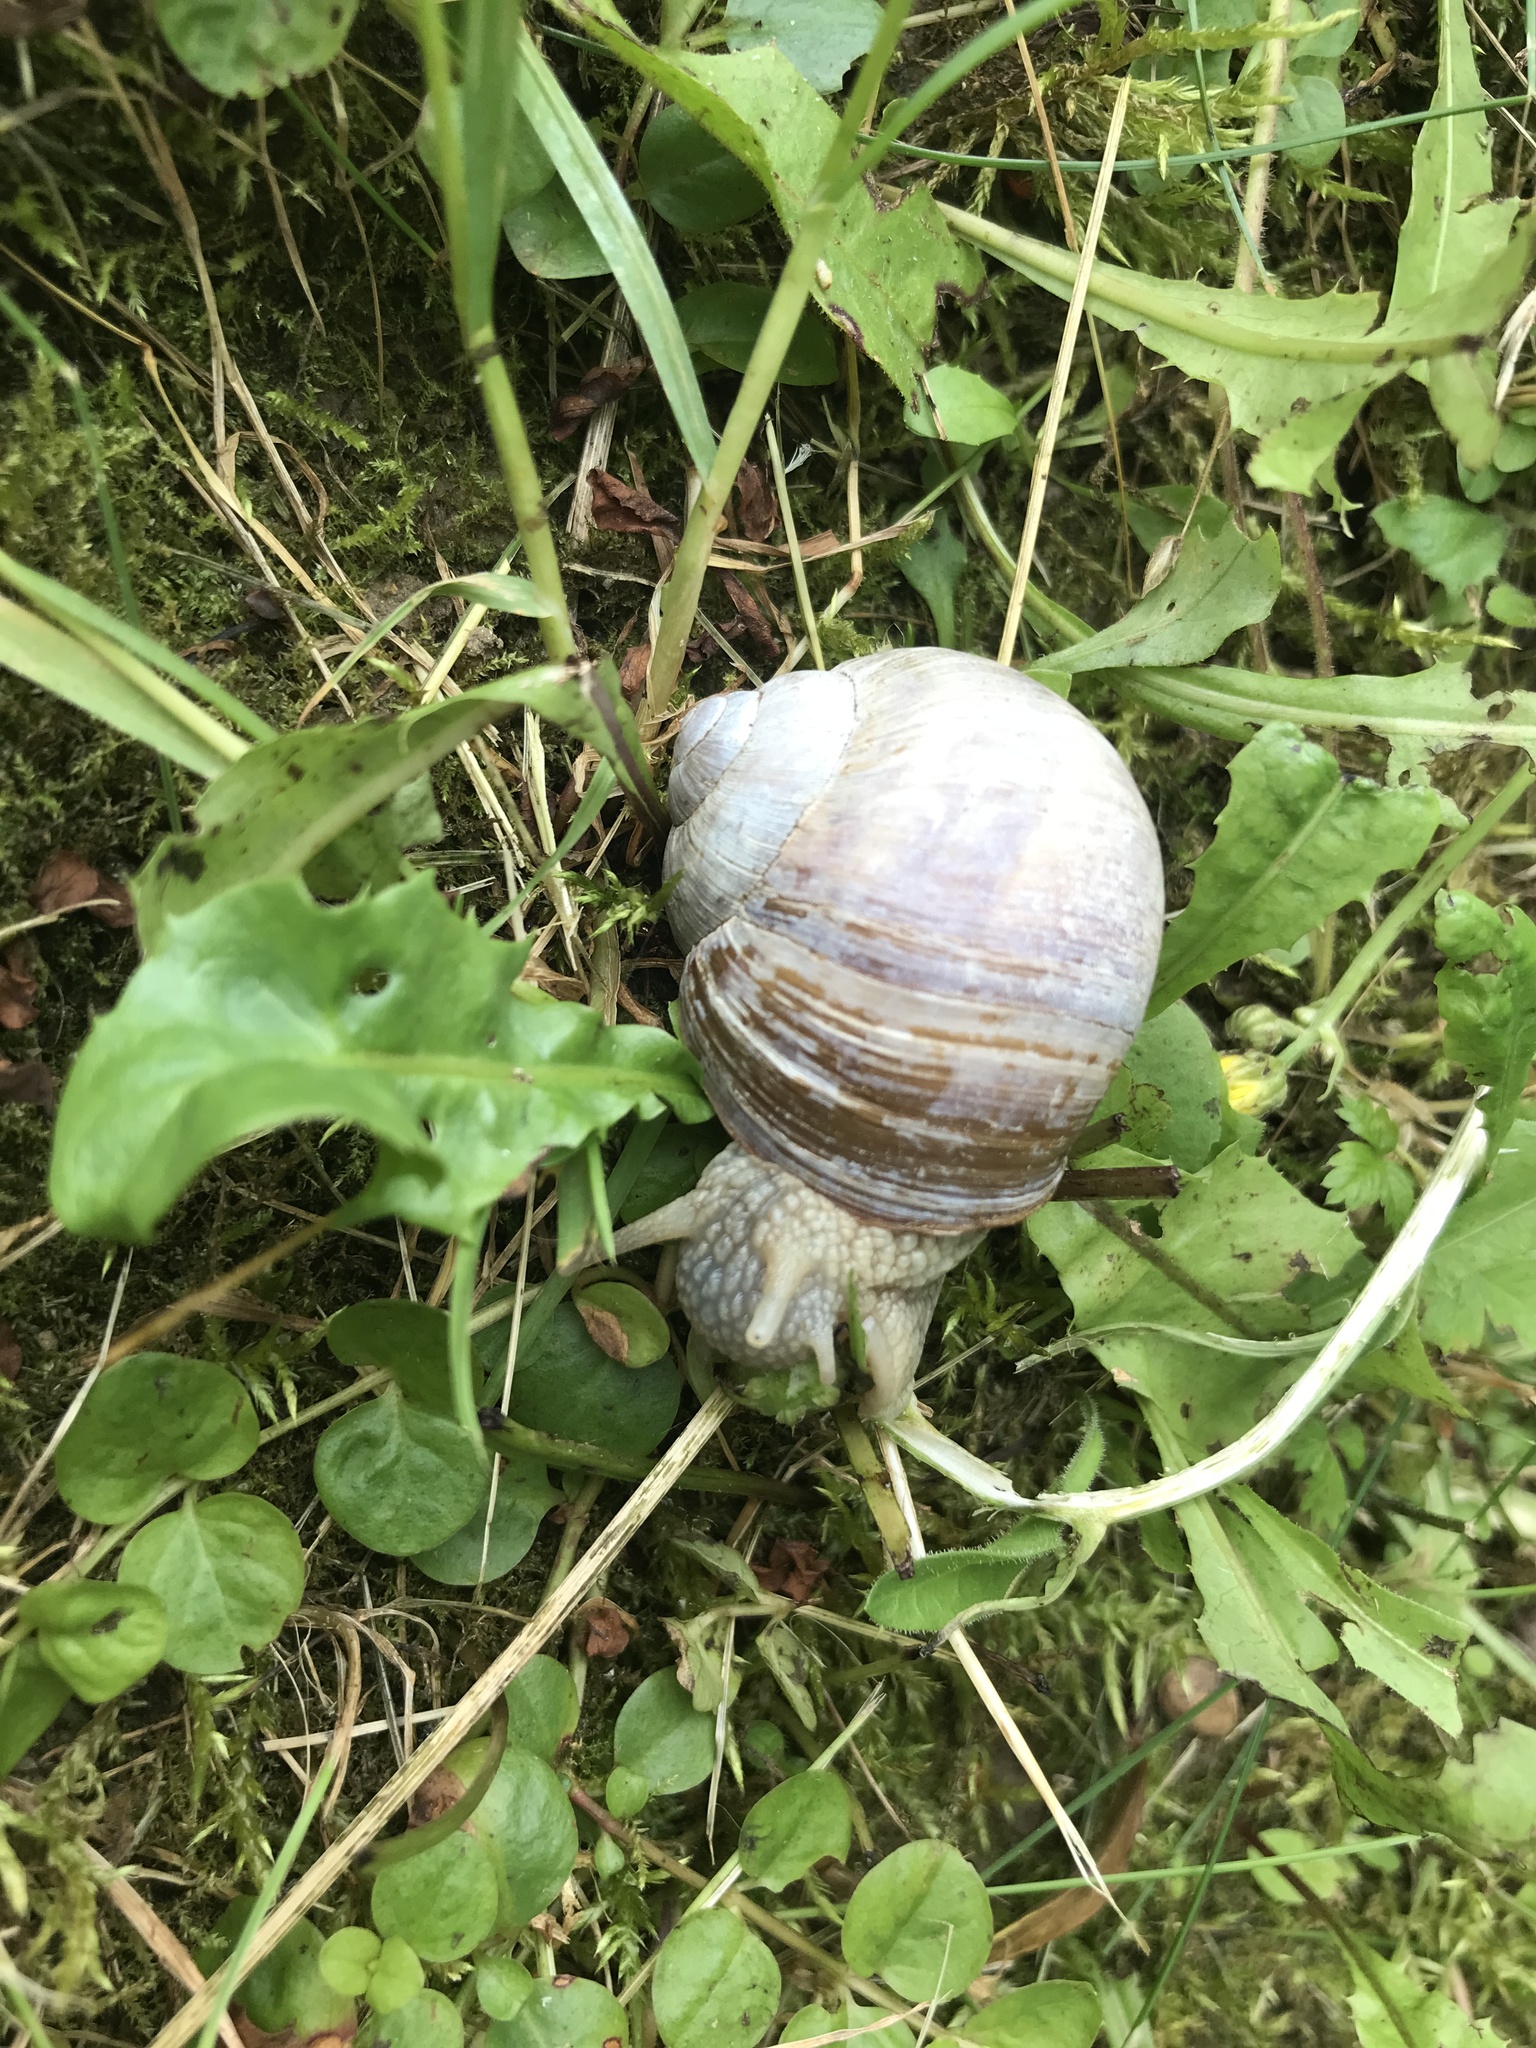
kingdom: Animalia
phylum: Mollusca
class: Gastropoda
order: Stylommatophora
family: Helicidae
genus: Helix
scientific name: Helix pomatia
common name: Roman snail
